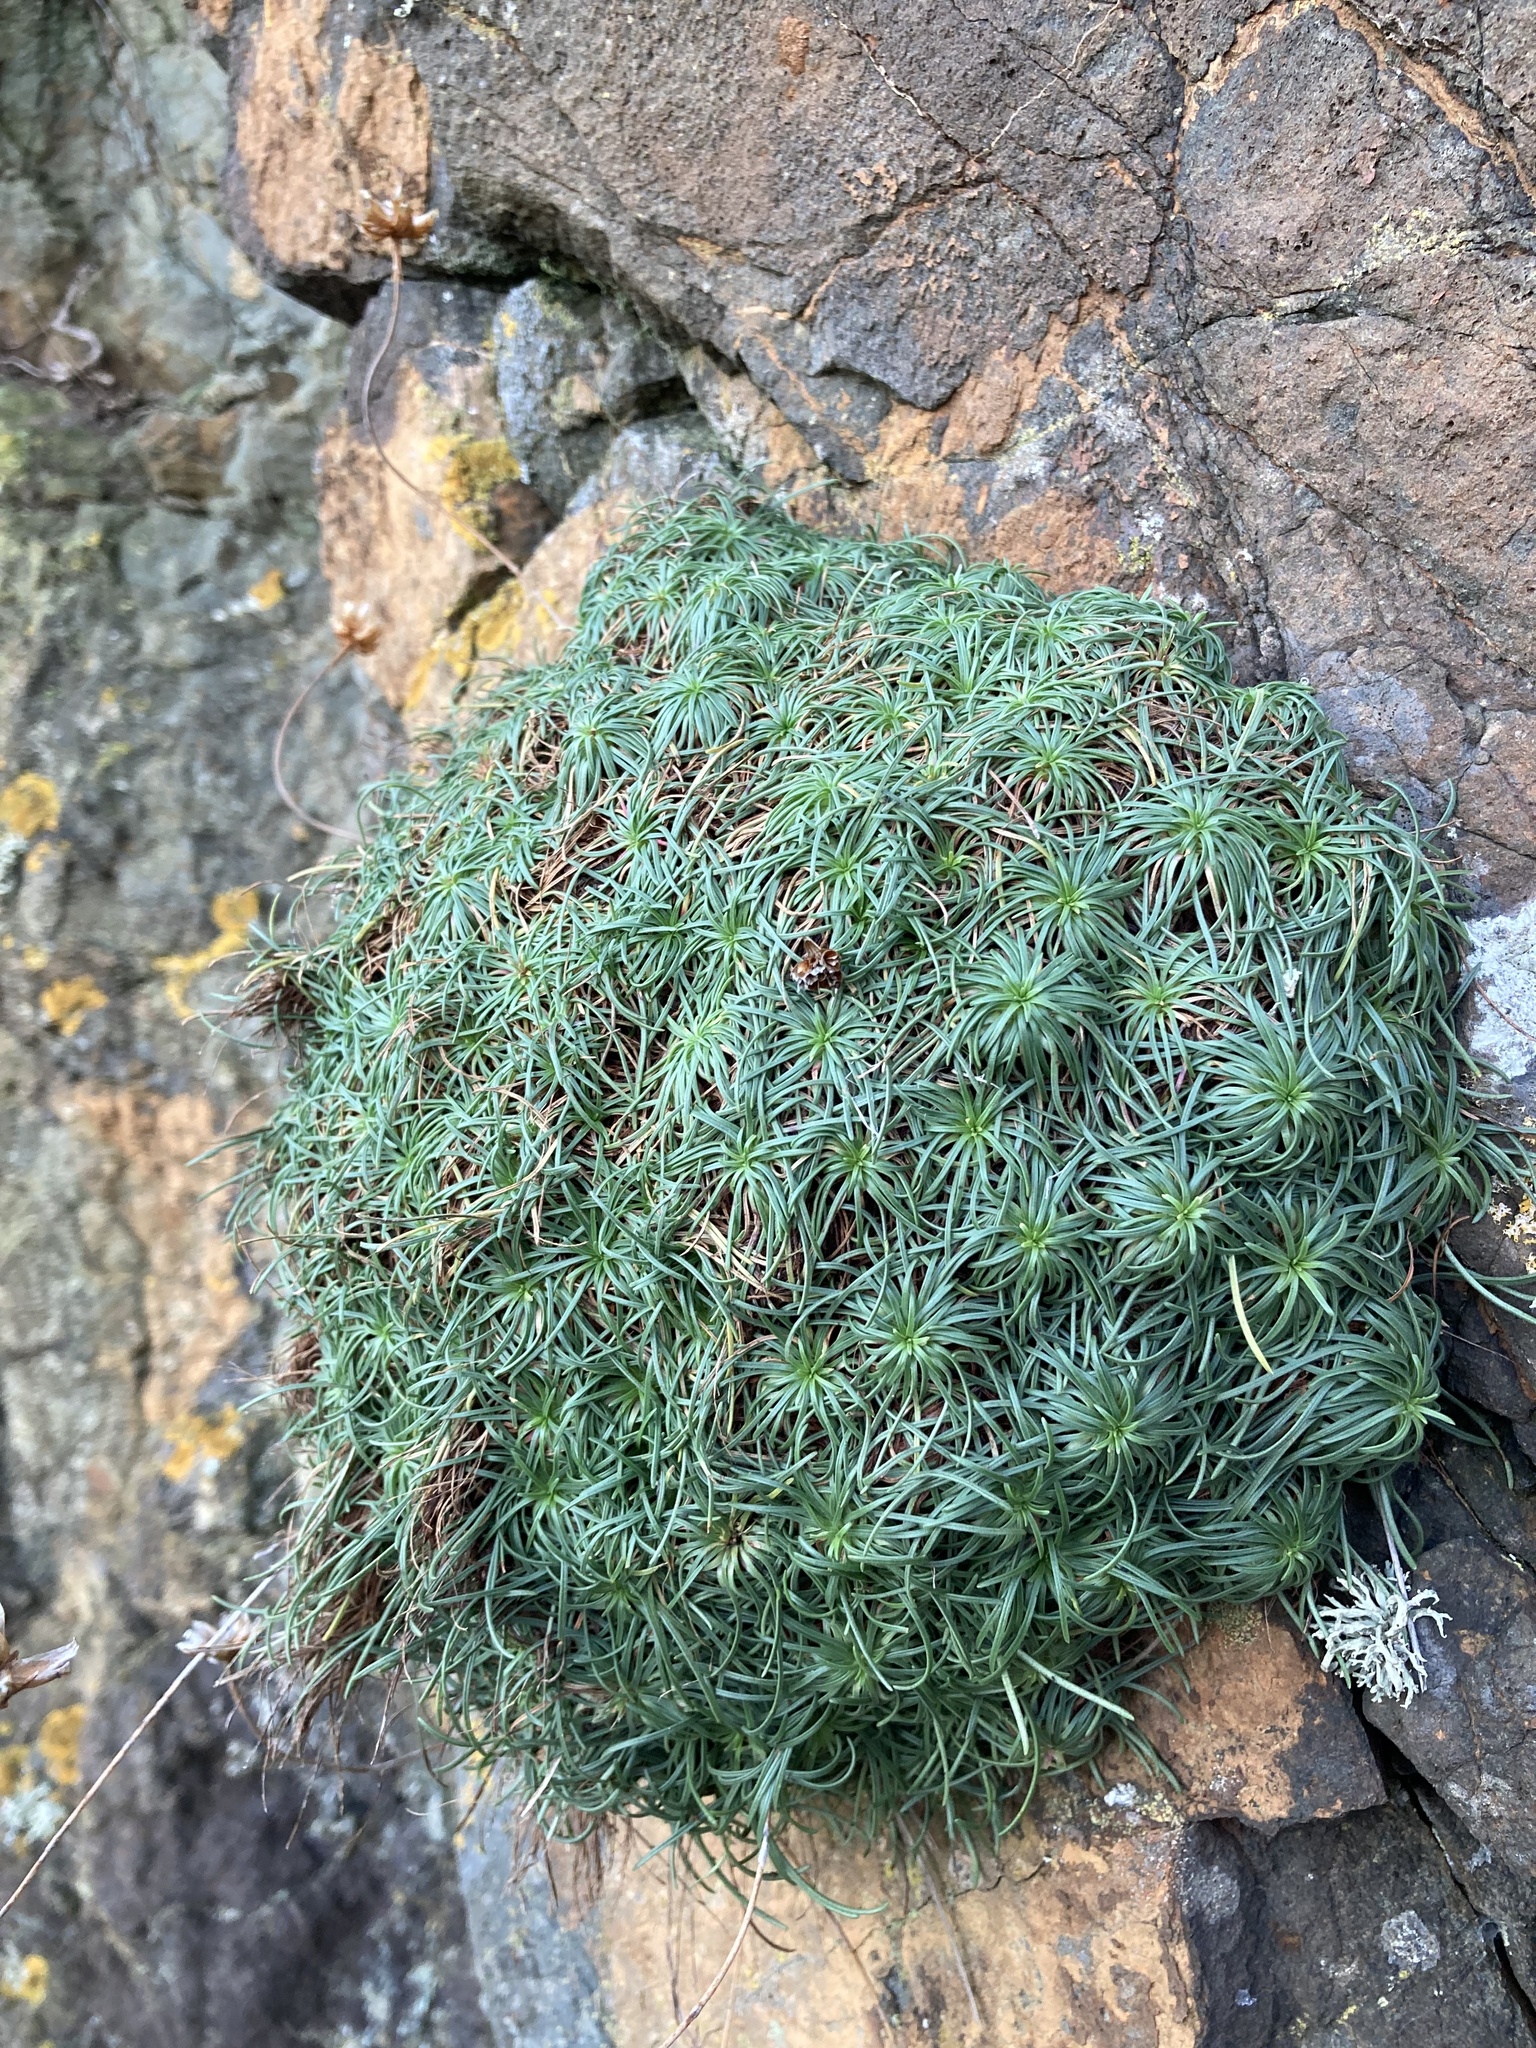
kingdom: Plantae
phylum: Tracheophyta
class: Magnoliopsida
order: Caryophyllales
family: Plumbaginaceae
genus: Armeria
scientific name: Armeria maritima
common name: Thrift
